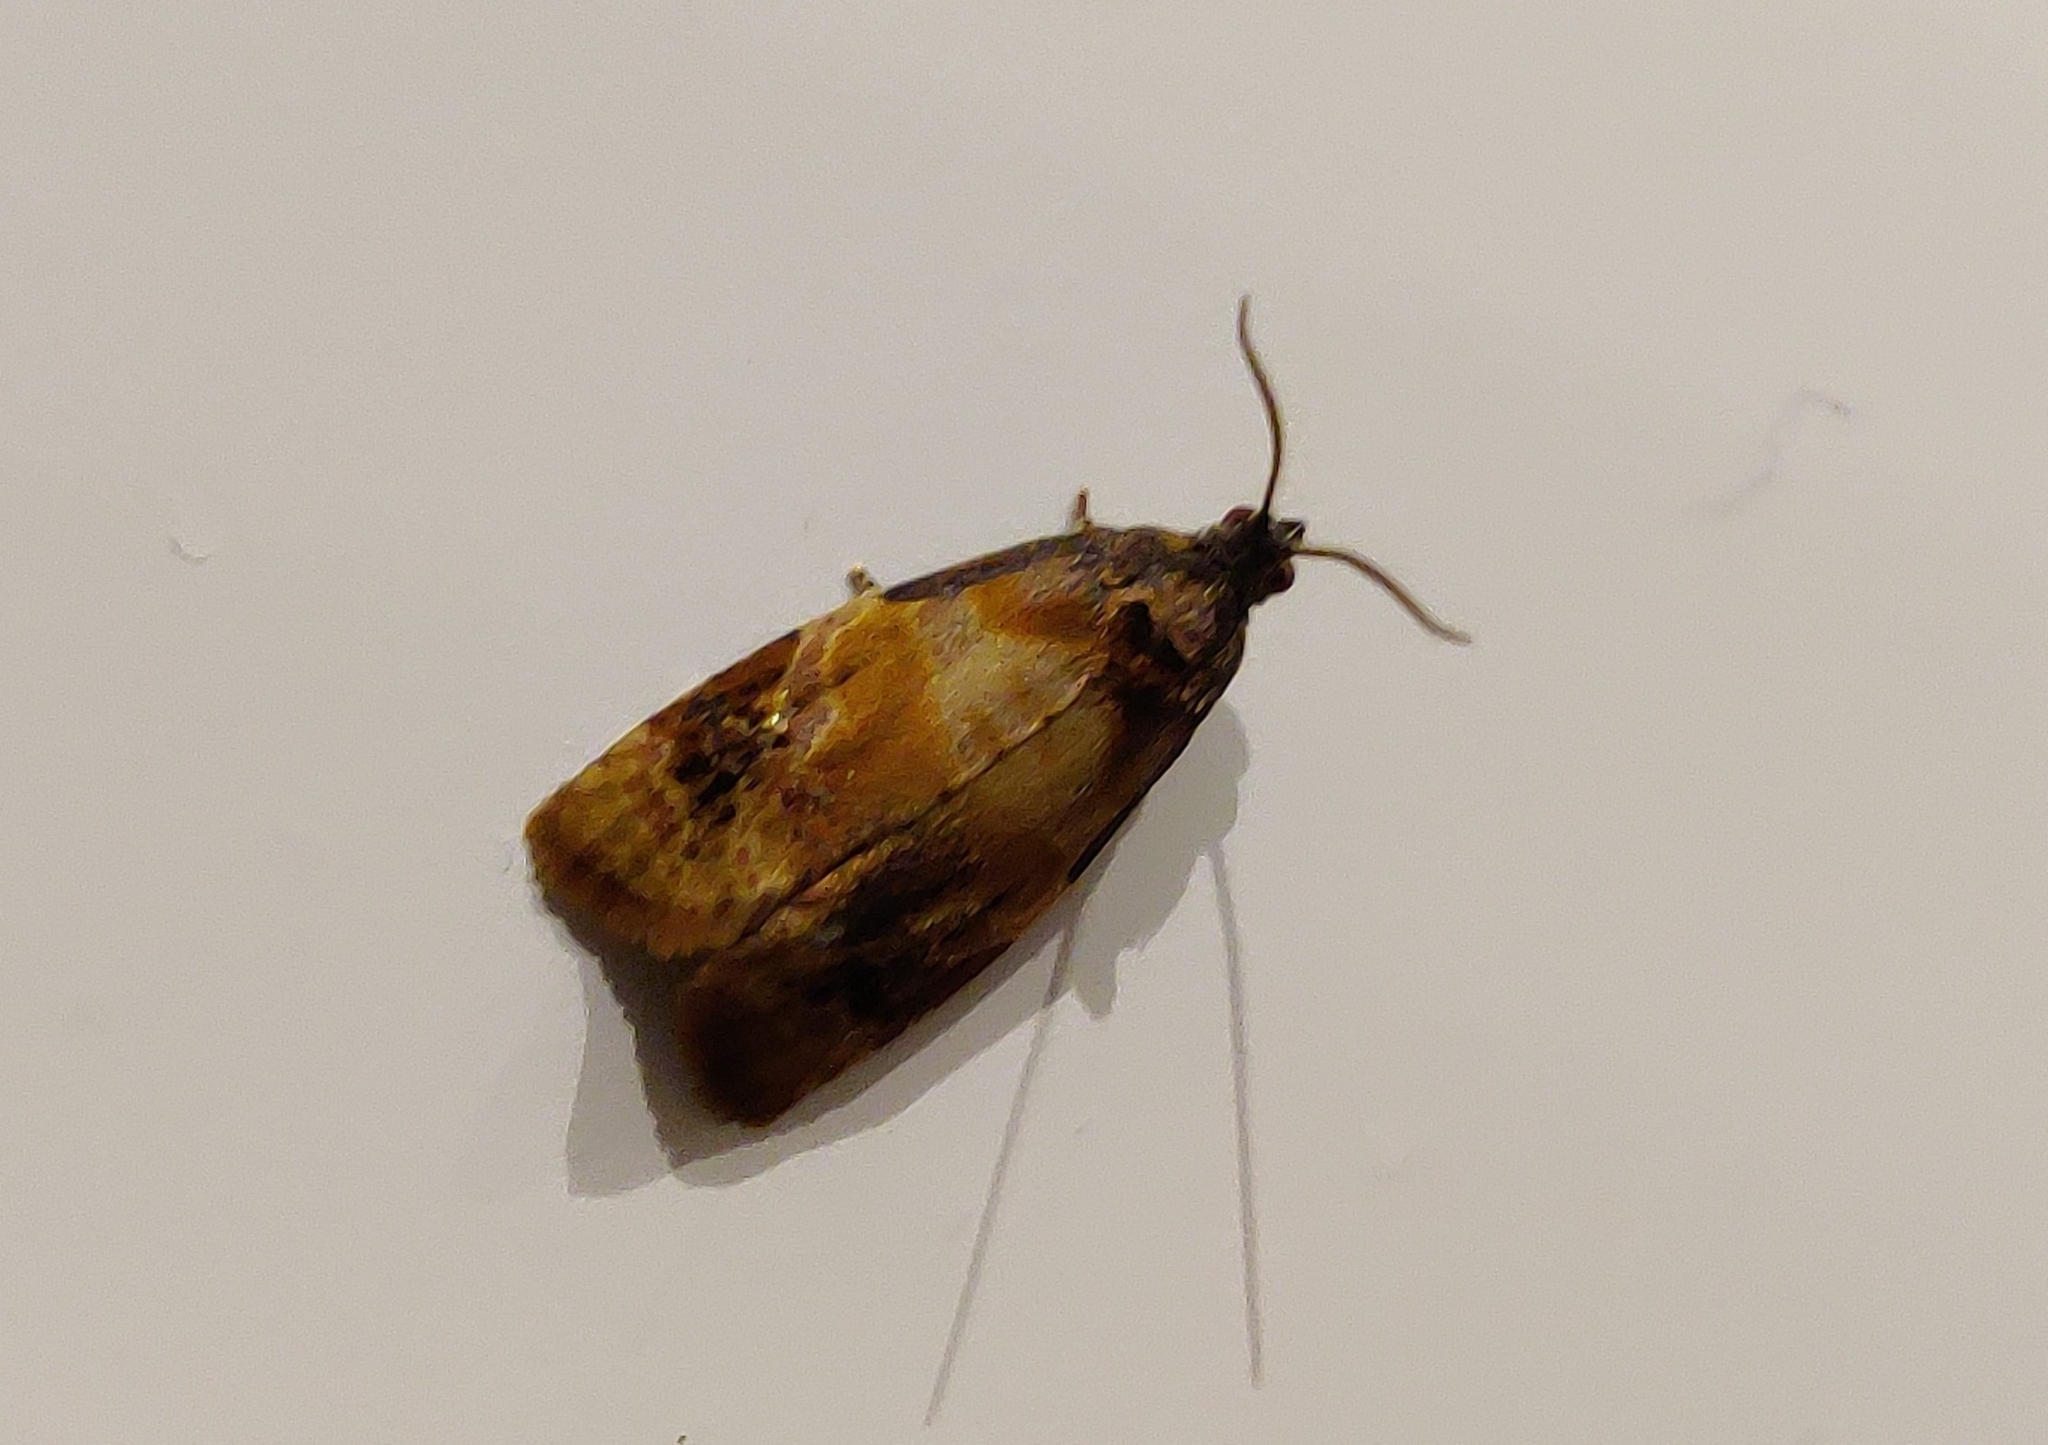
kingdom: Animalia
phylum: Arthropoda
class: Insecta
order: Lepidoptera
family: Tortricidae
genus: Ditula
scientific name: Ditula angustiorana
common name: Red-barred tortrix
